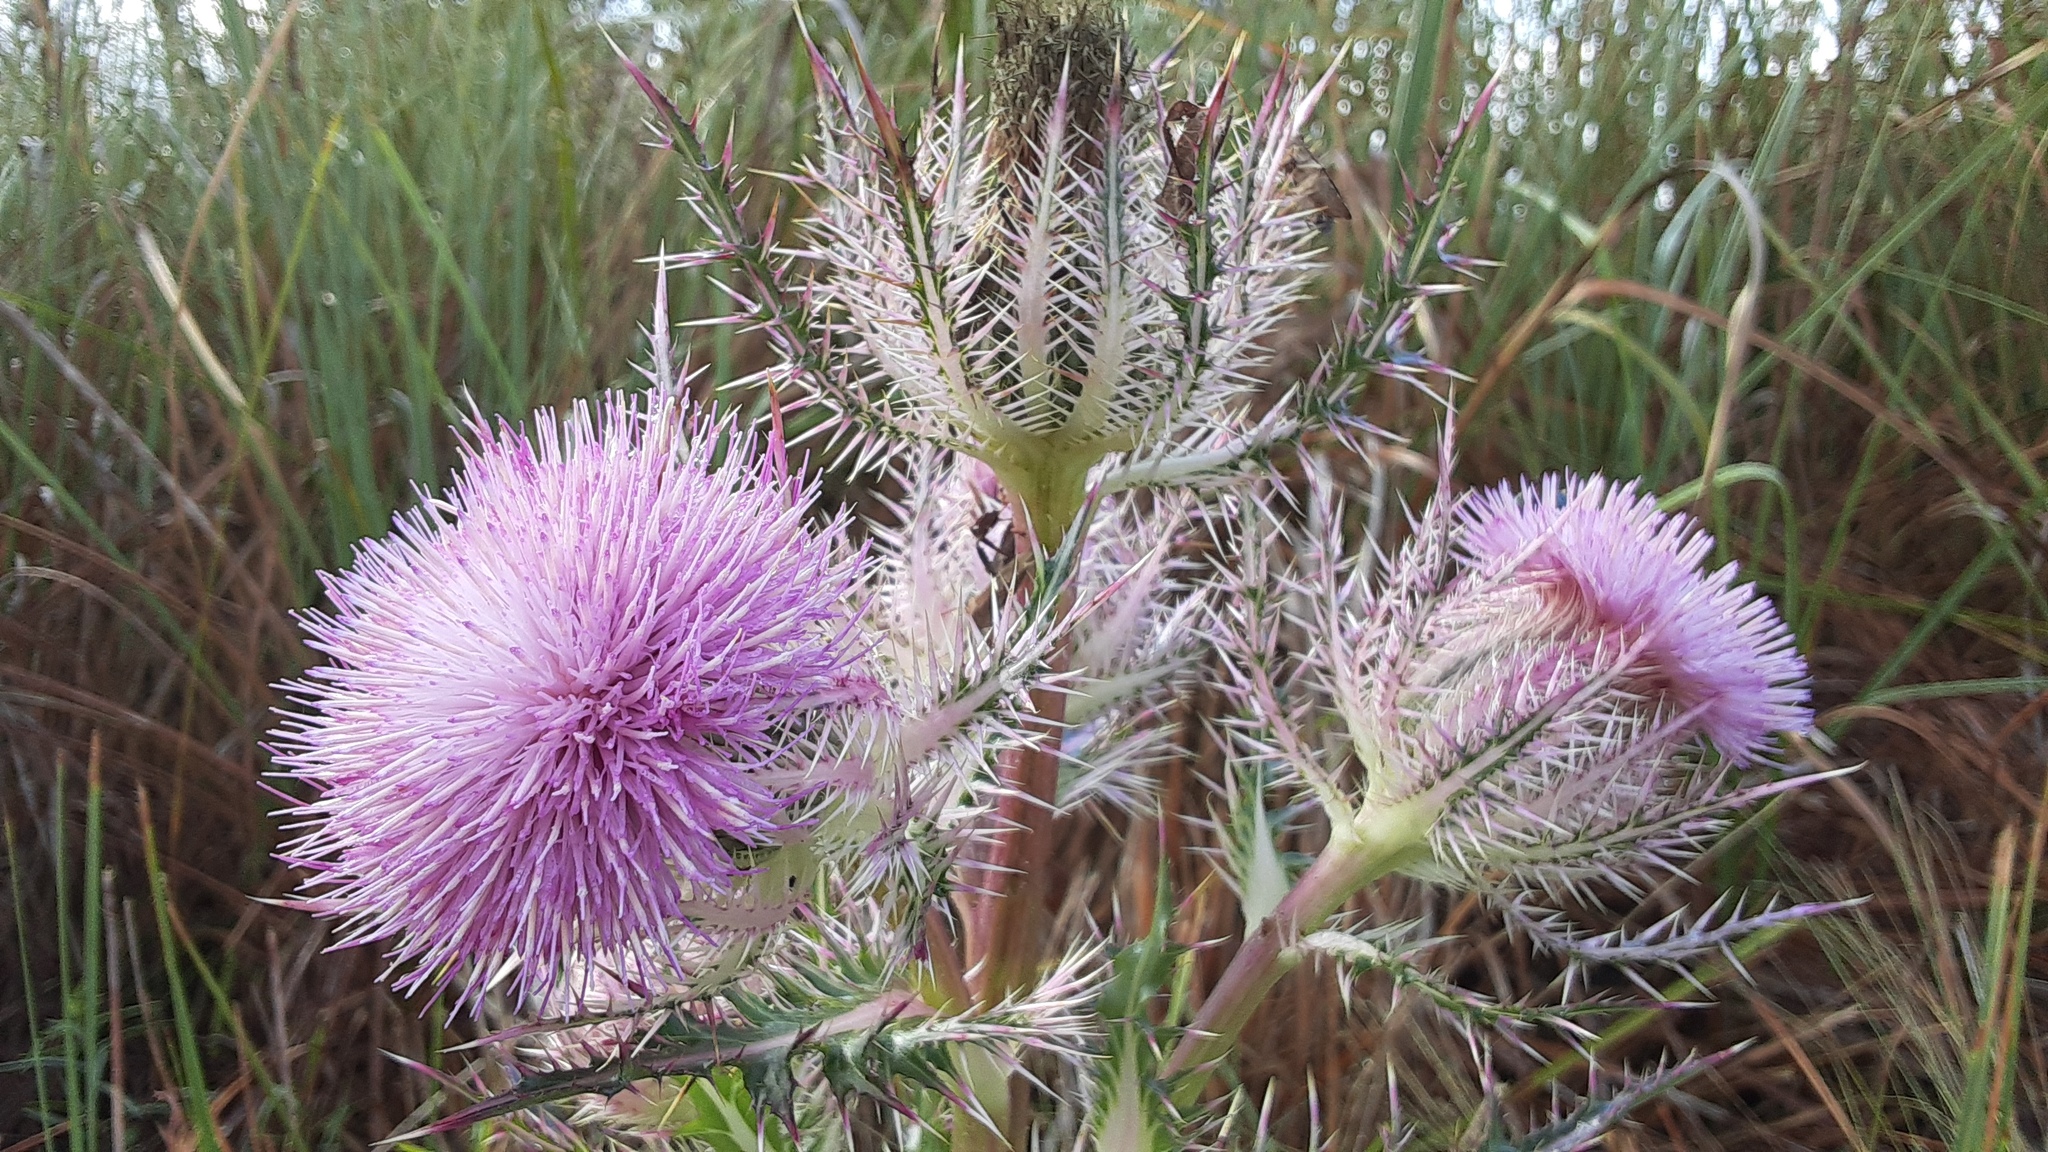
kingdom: Plantae
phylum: Tracheophyta
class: Magnoliopsida
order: Asterales
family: Asteraceae
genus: Cirsium
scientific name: Cirsium horridulum
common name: Bristly thistle
